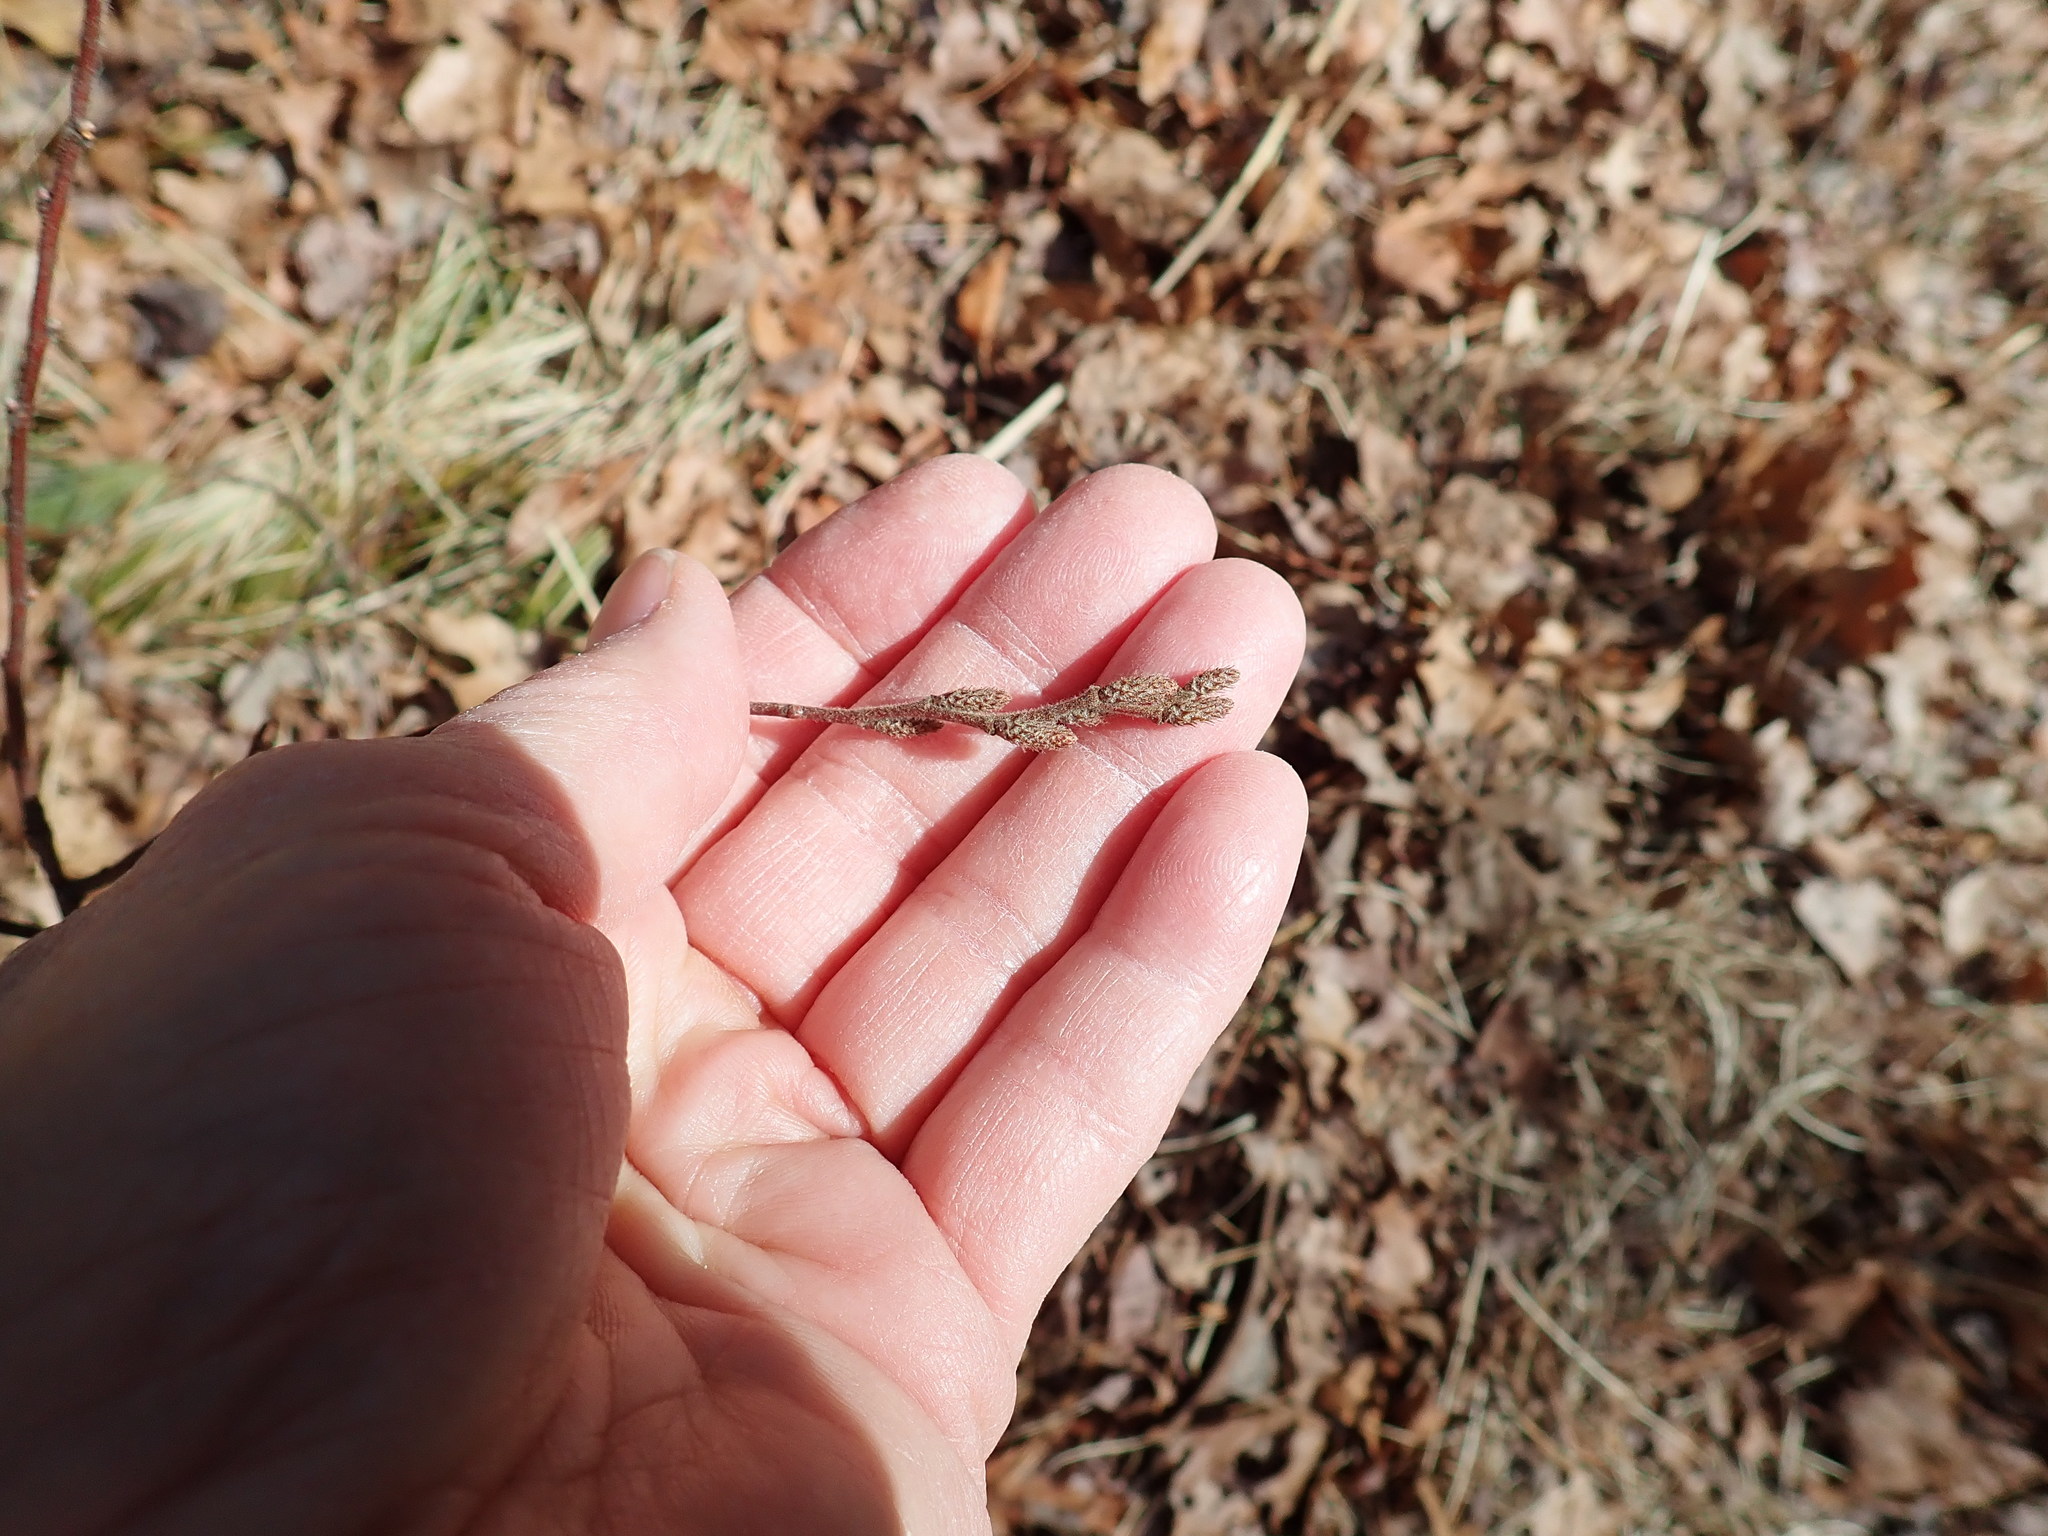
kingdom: Plantae
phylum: Tracheophyta
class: Magnoliopsida
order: Fagales
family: Myricaceae
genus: Comptonia
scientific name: Comptonia peregrina
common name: Sweet-fern
